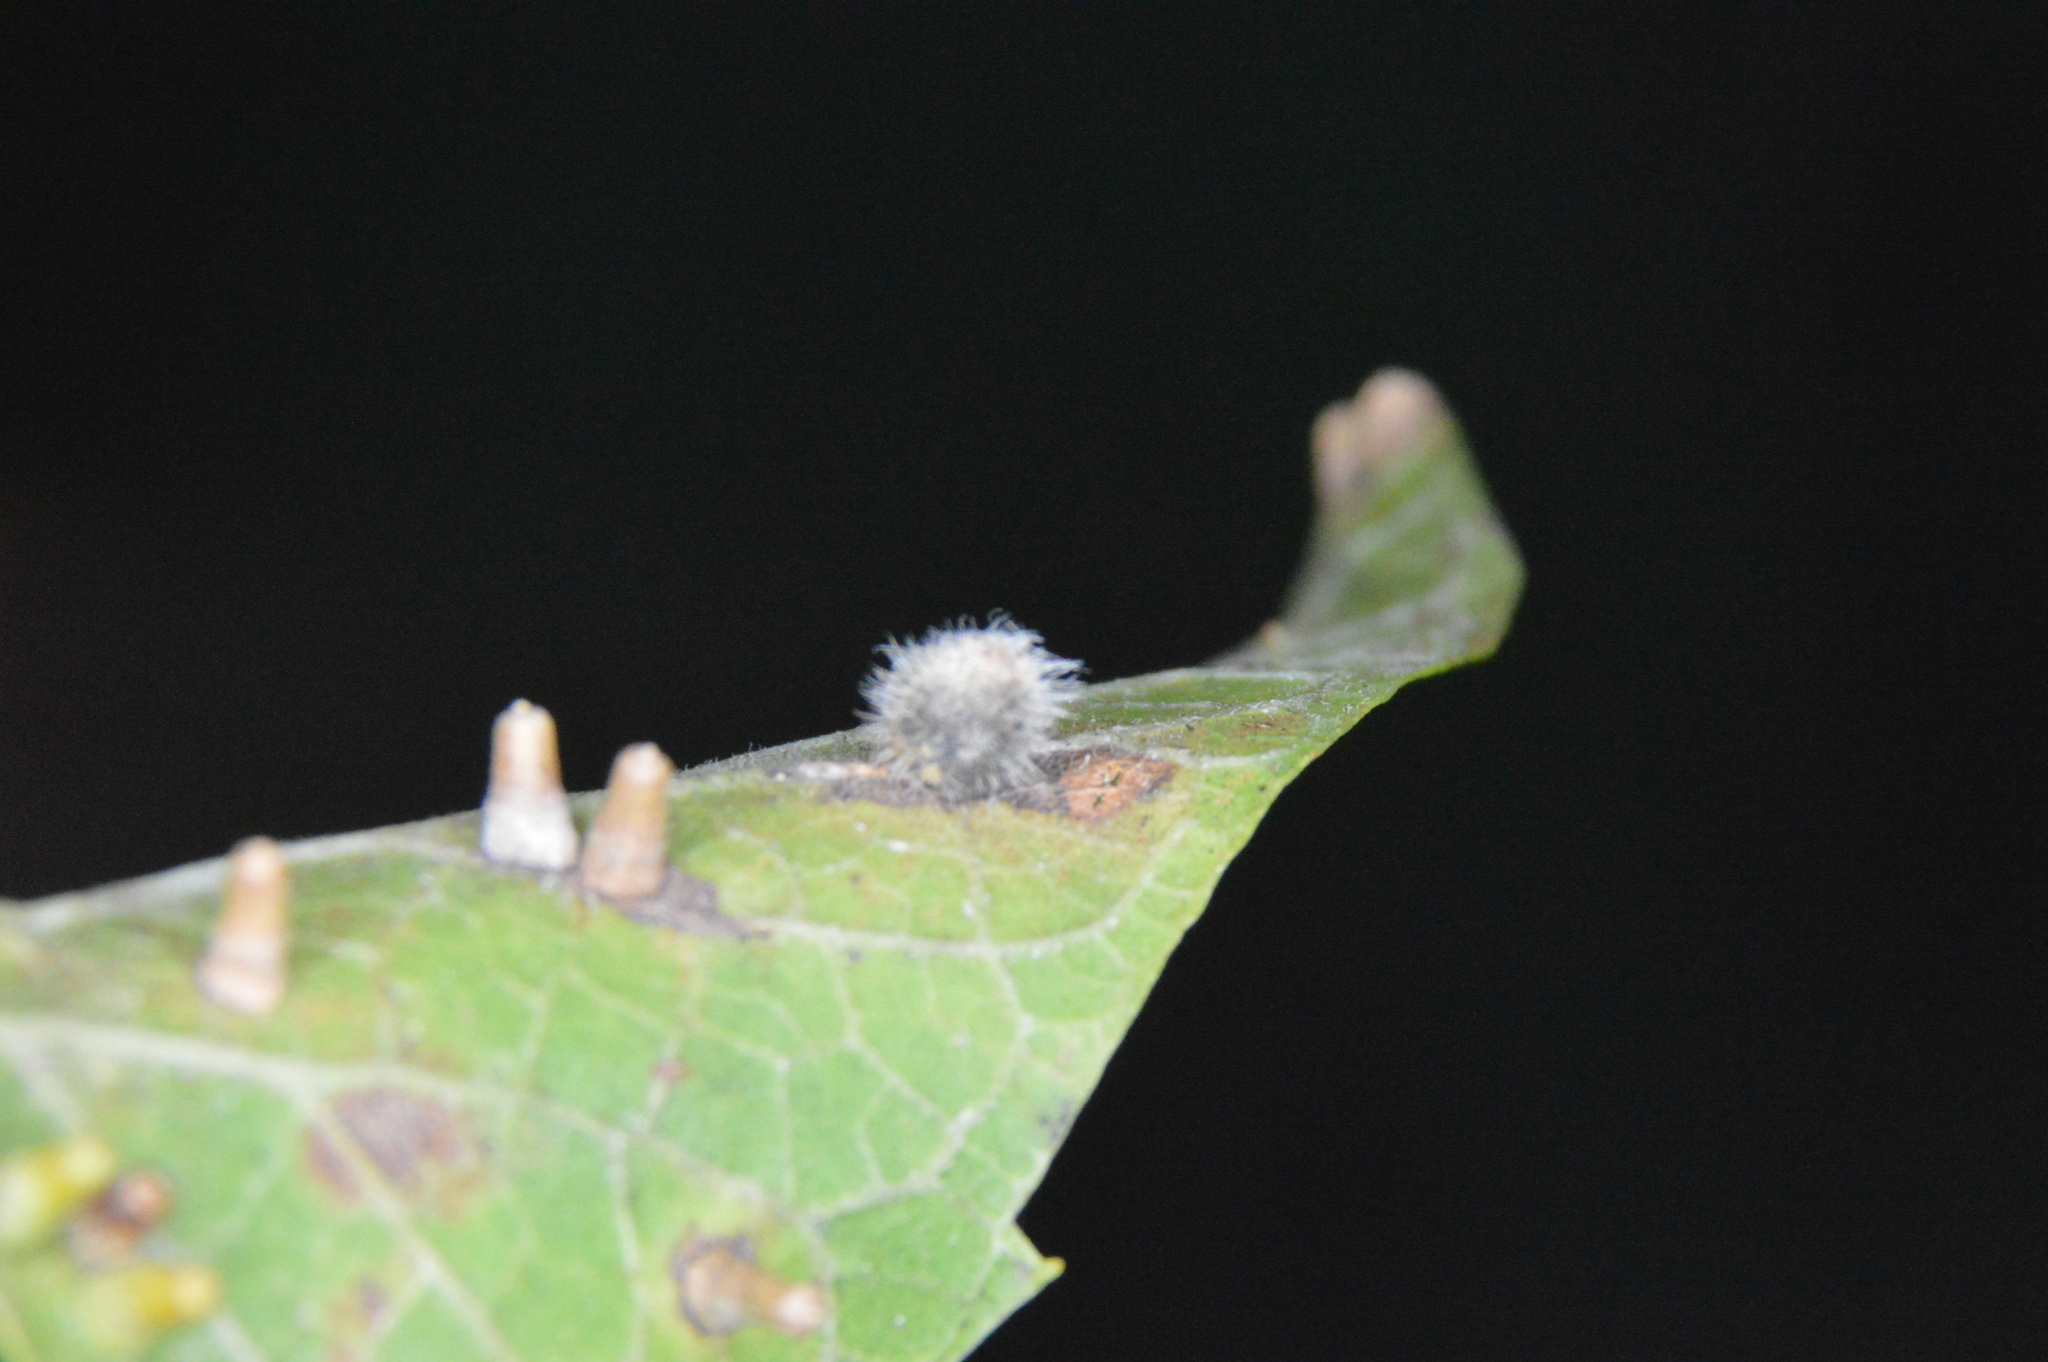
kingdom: Animalia
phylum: Arthropoda
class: Insecta
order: Diptera
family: Cecidomyiidae
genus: Celticecis
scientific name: Celticecis pubescens
